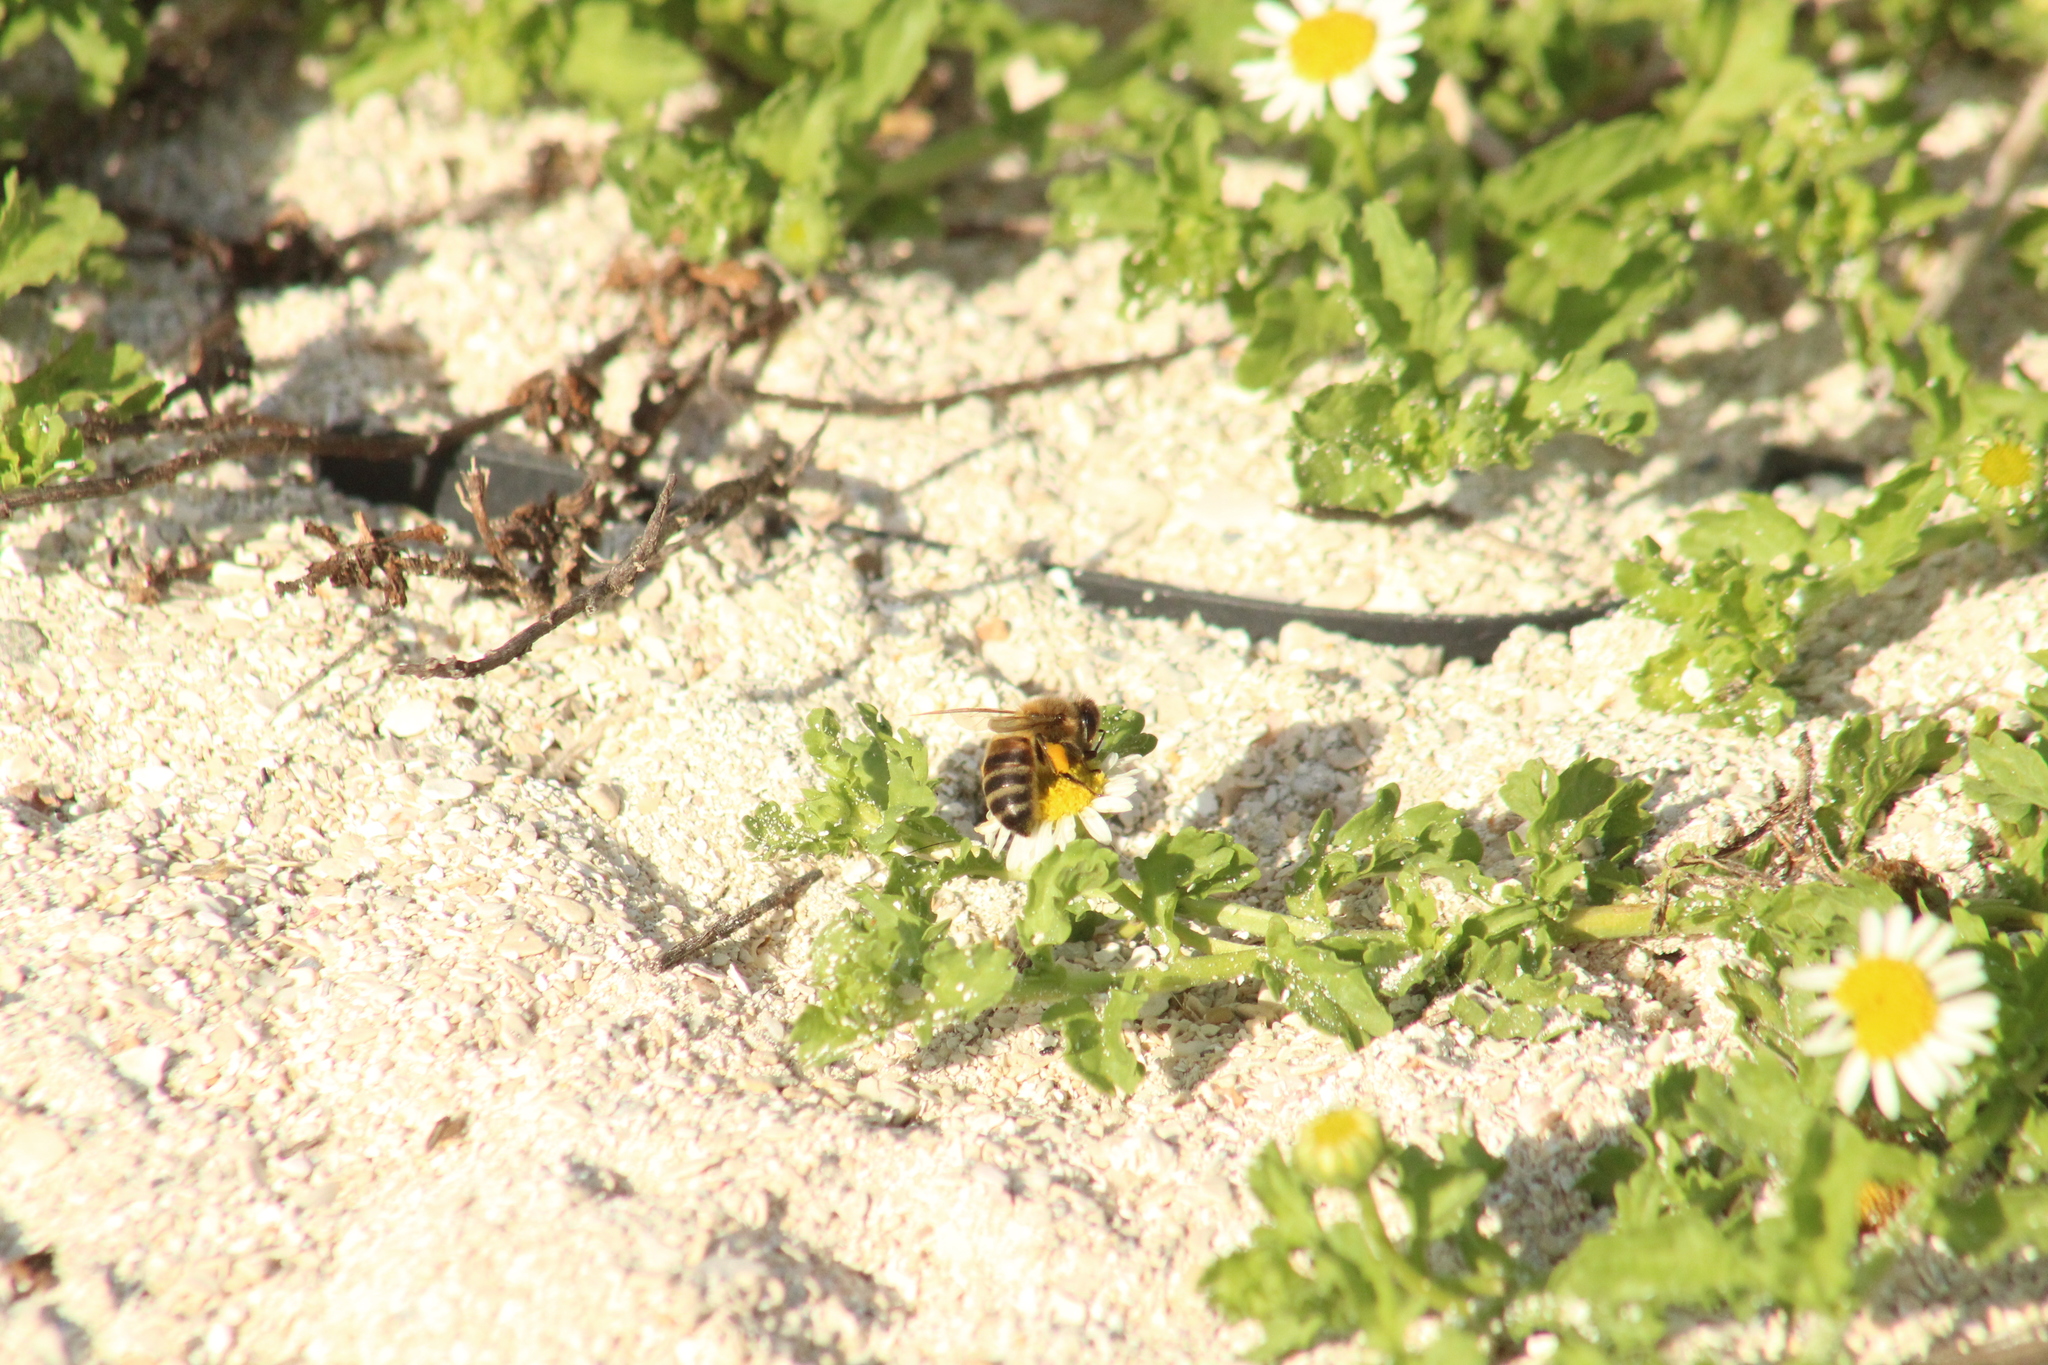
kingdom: Animalia
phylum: Arthropoda
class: Insecta
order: Hymenoptera
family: Apidae
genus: Apis
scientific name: Apis mellifera
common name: Honey bee
